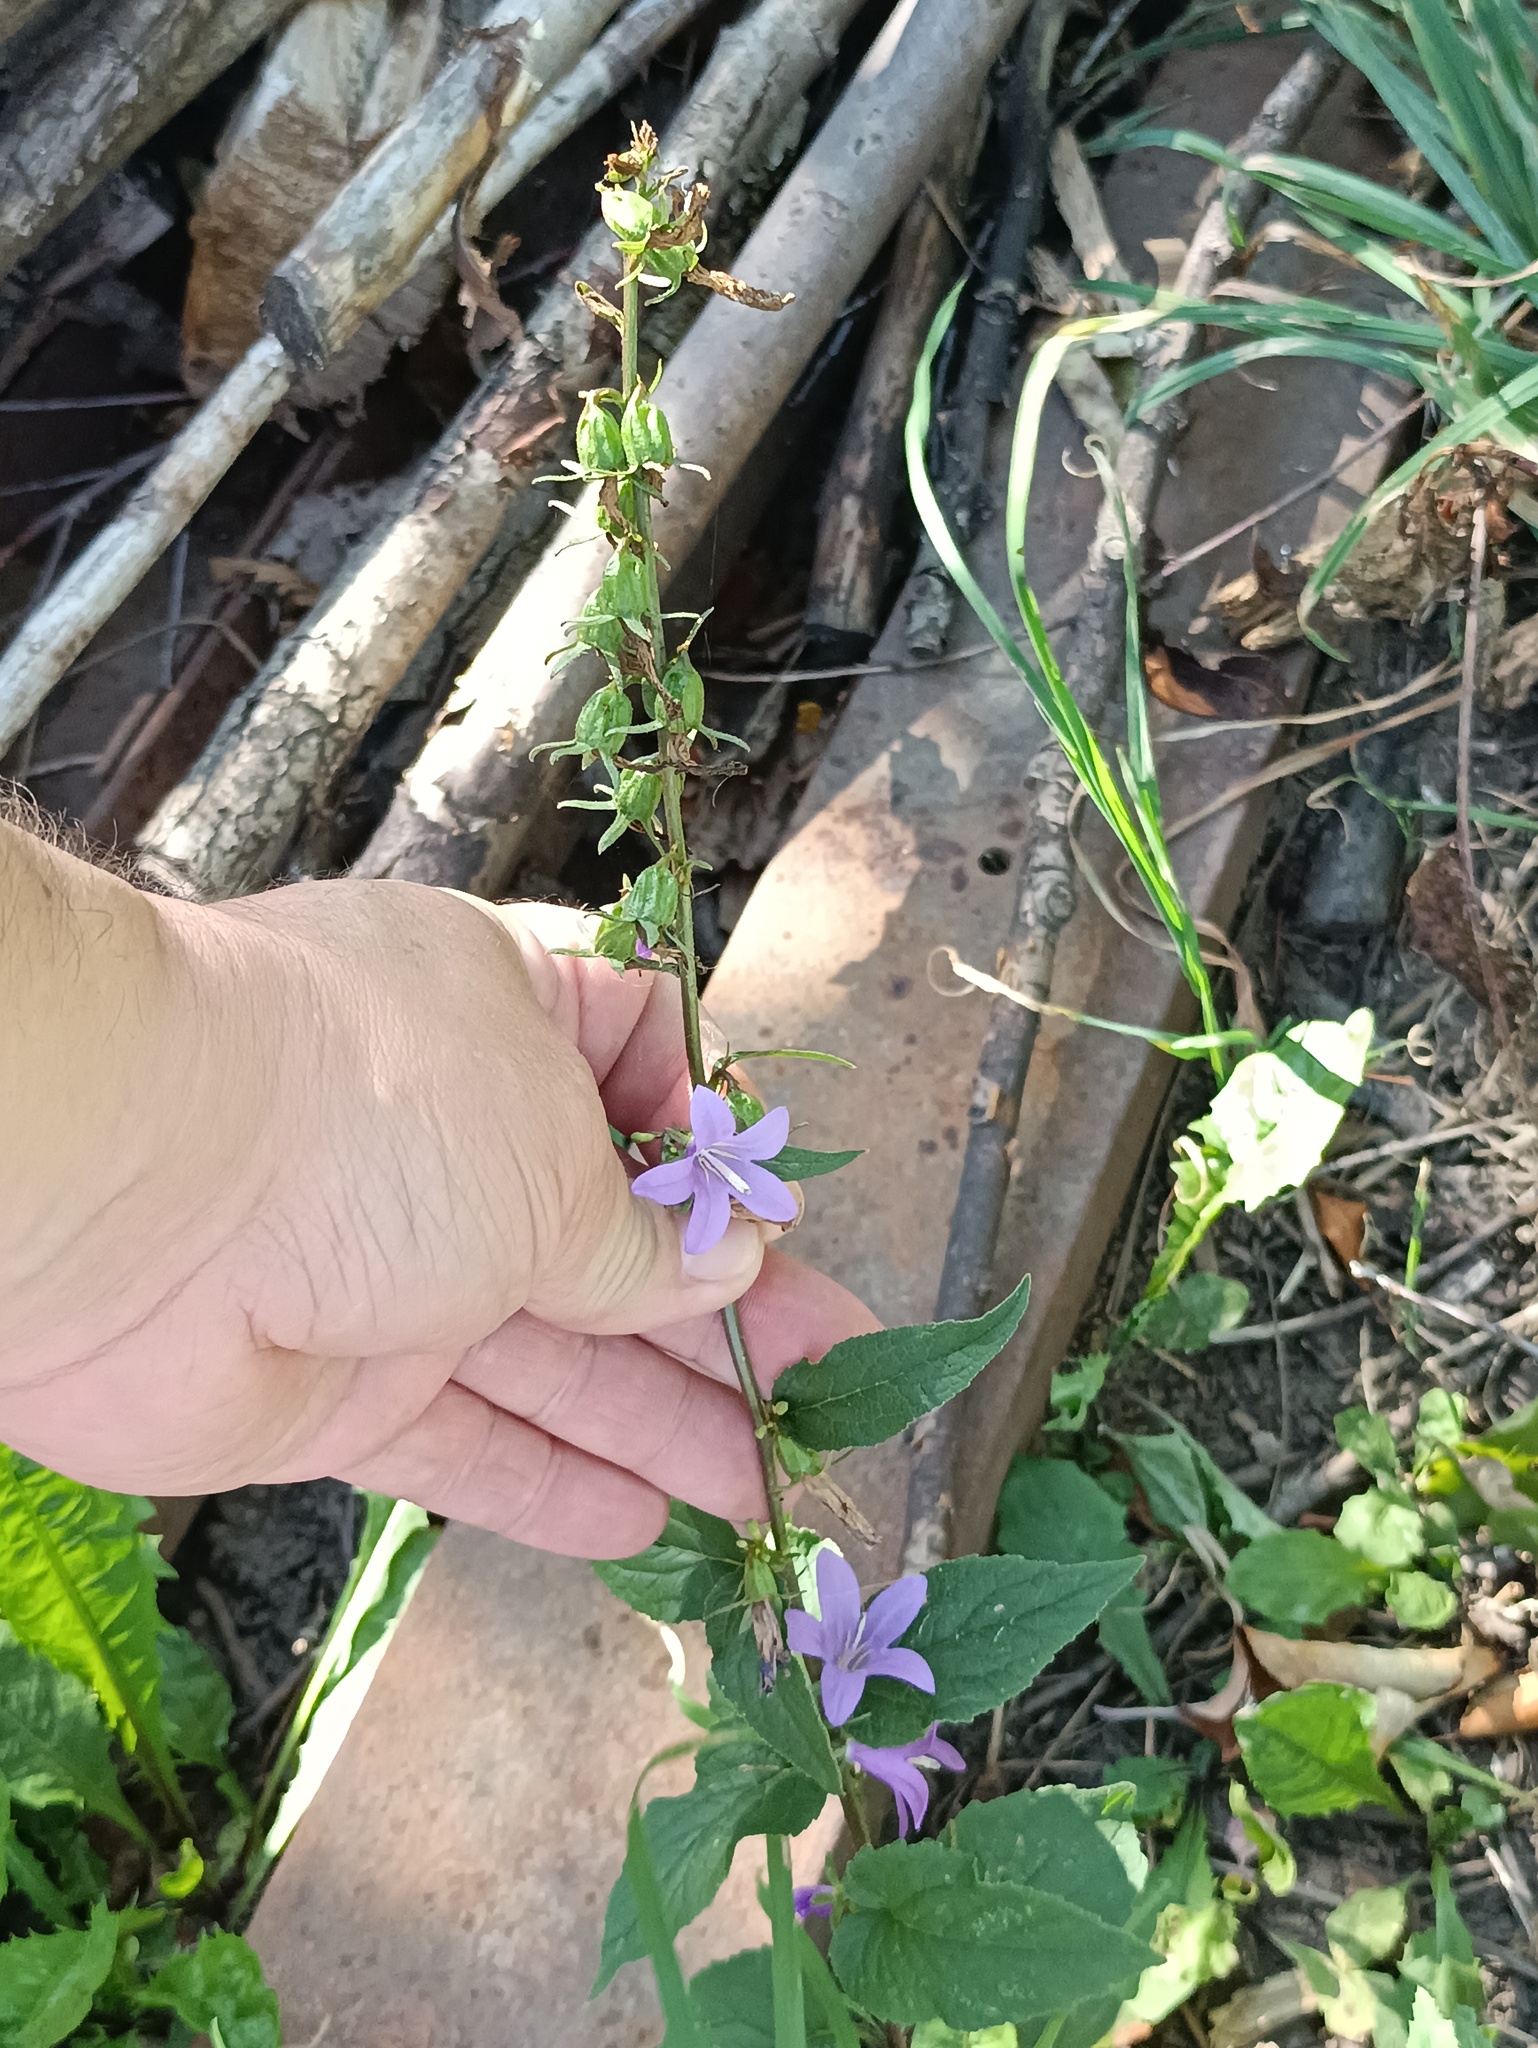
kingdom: Plantae
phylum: Tracheophyta
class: Magnoliopsida
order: Asterales
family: Campanulaceae
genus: Campanula
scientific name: Campanula rapunculoides
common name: Creeping bellflower
